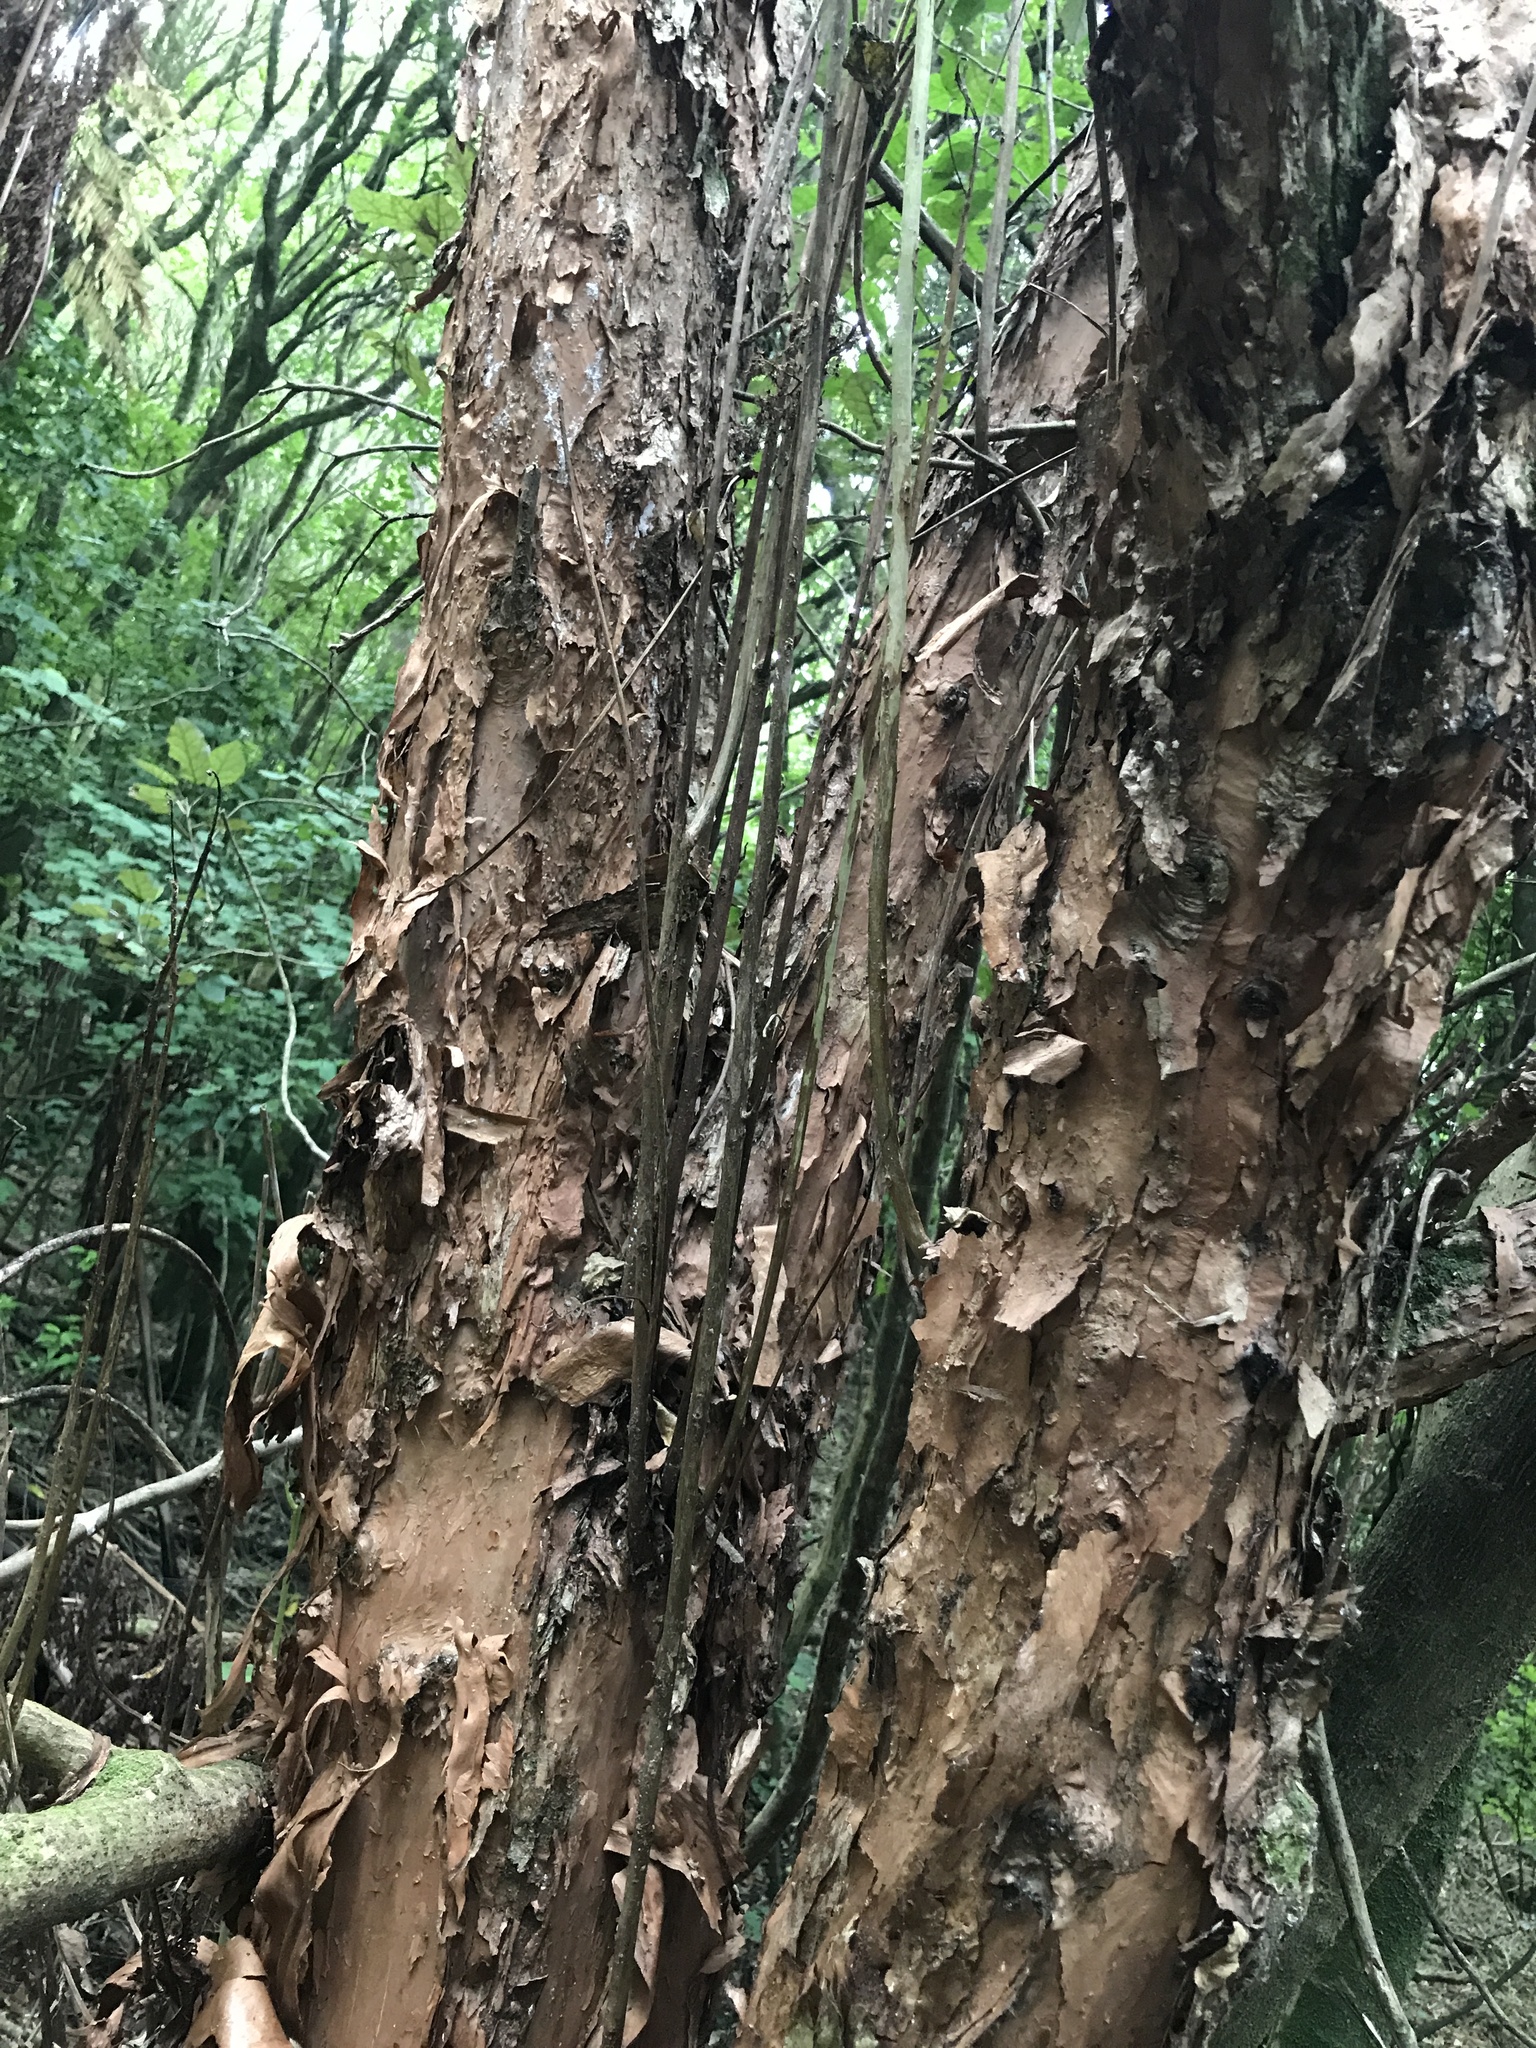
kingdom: Plantae
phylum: Tracheophyta
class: Magnoliopsida
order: Myrtales
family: Onagraceae
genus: Fuchsia
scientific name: Fuchsia excorticata
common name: Tree fuchsia
